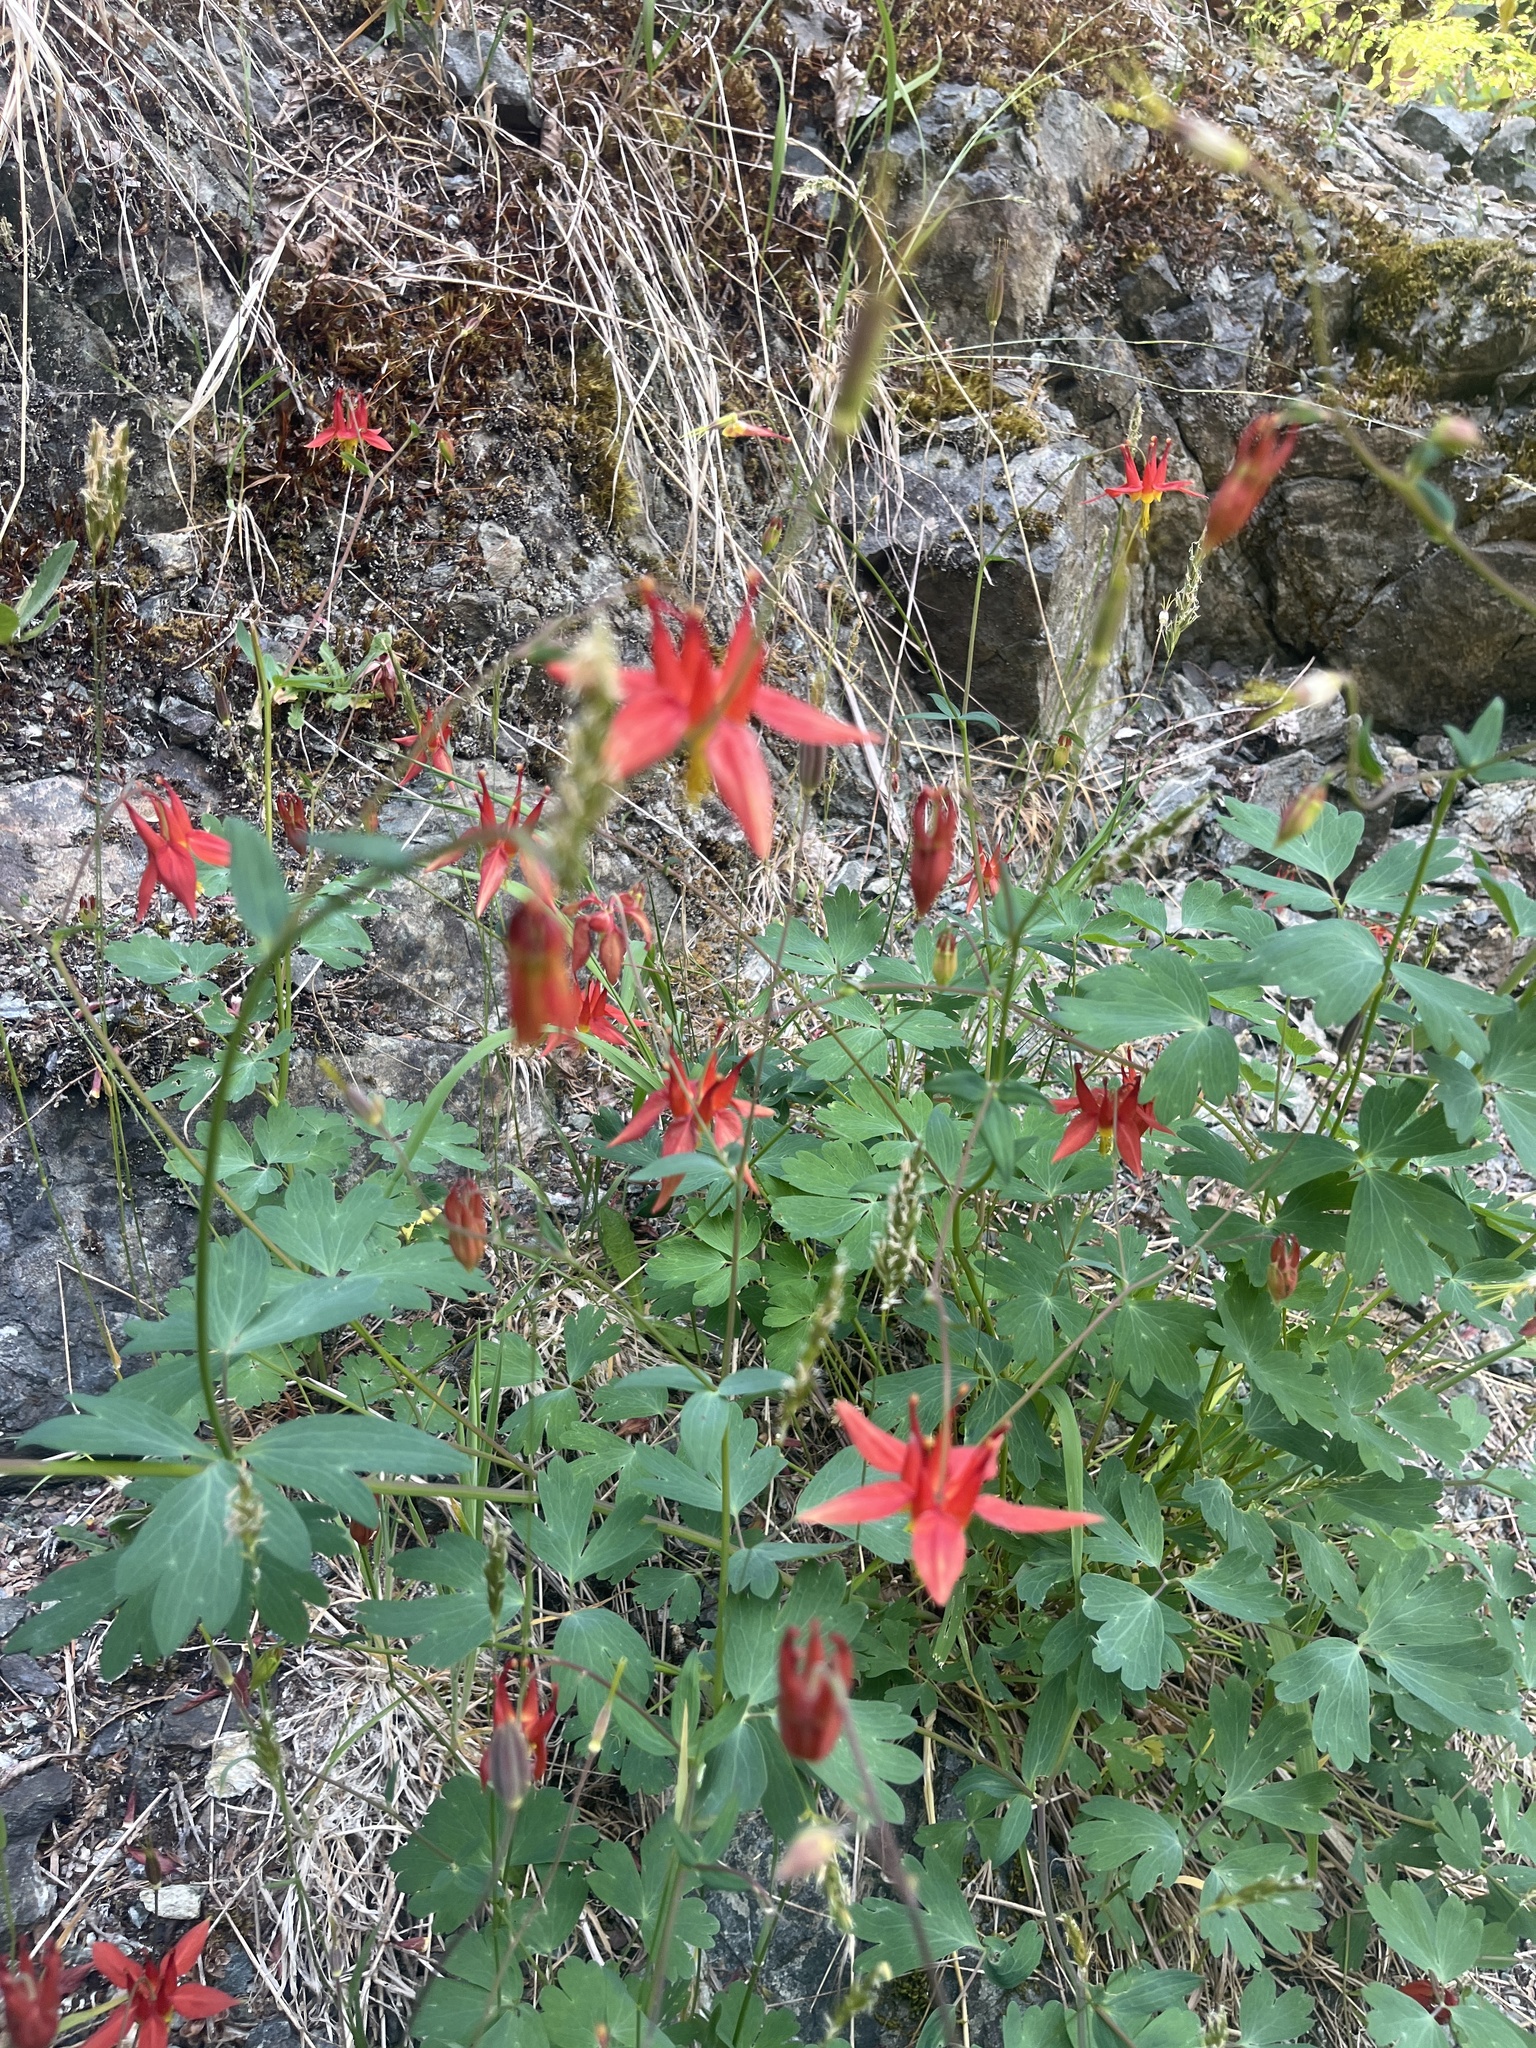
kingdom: Plantae
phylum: Tracheophyta
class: Magnoliopsida
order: Ranunculales
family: Ranunculaceae
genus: Aquilegia
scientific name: Aquilegia formosa
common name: Sitka columbine
